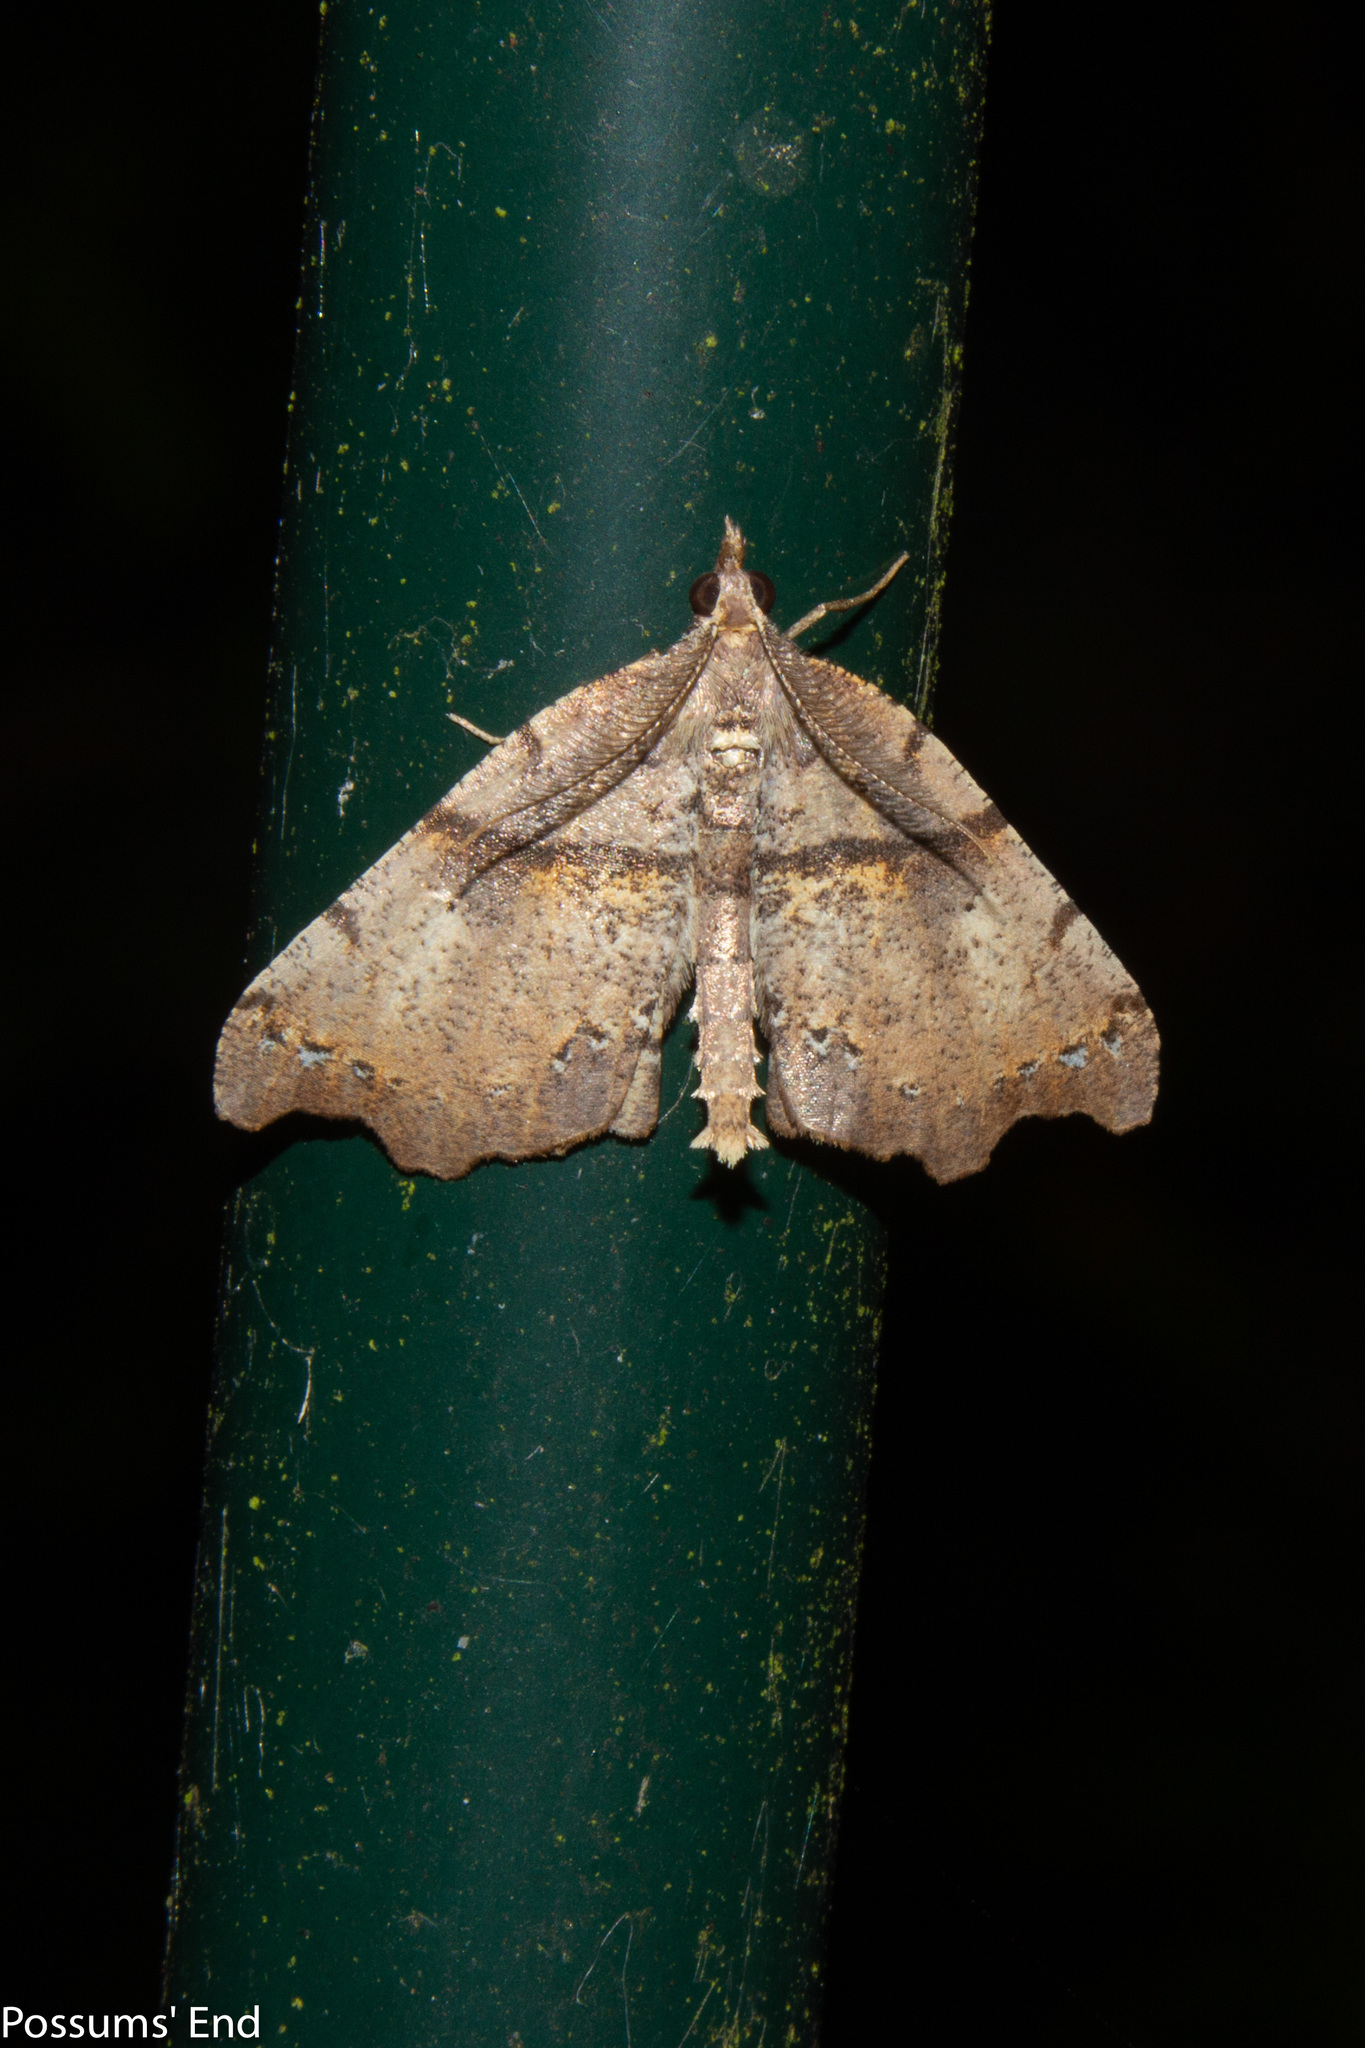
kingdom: Animalia
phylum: Arthropoda
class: Insecta
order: Lepidoptera
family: Geometridae
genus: Chalastra
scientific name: Chalastra pellurgata
